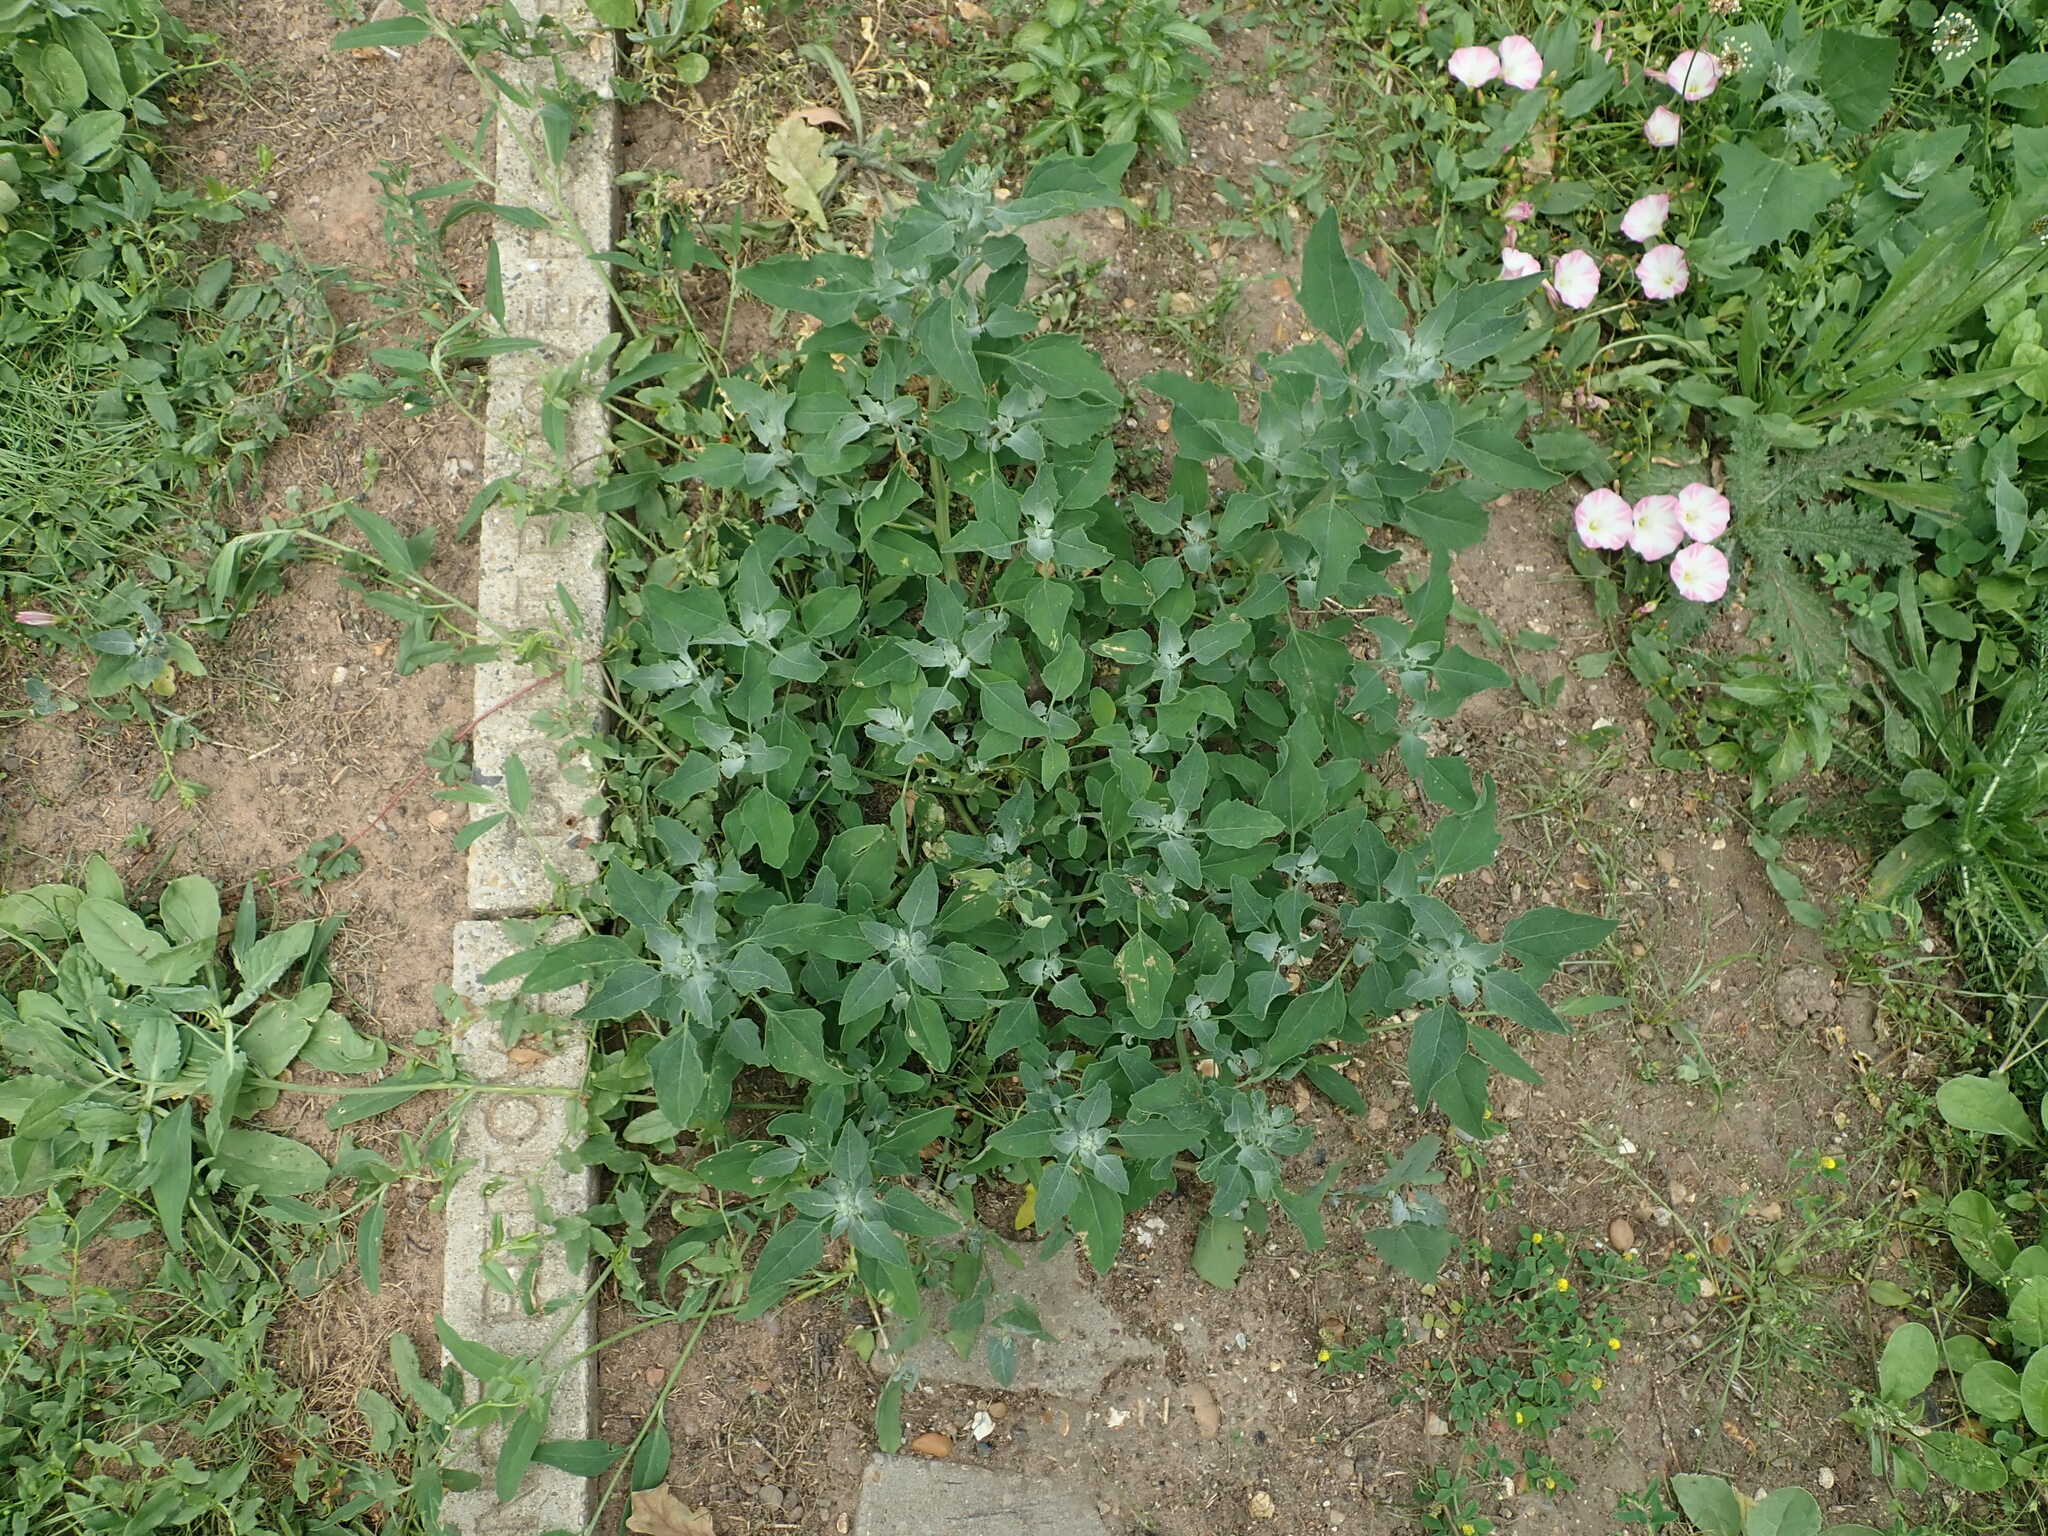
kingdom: Plantae
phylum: Tracheophyta
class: Magnoliopsida
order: Caryophyllales
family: Amaranthaceae
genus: Chenopodium
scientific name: Chenopodium album
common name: Fat-hen
